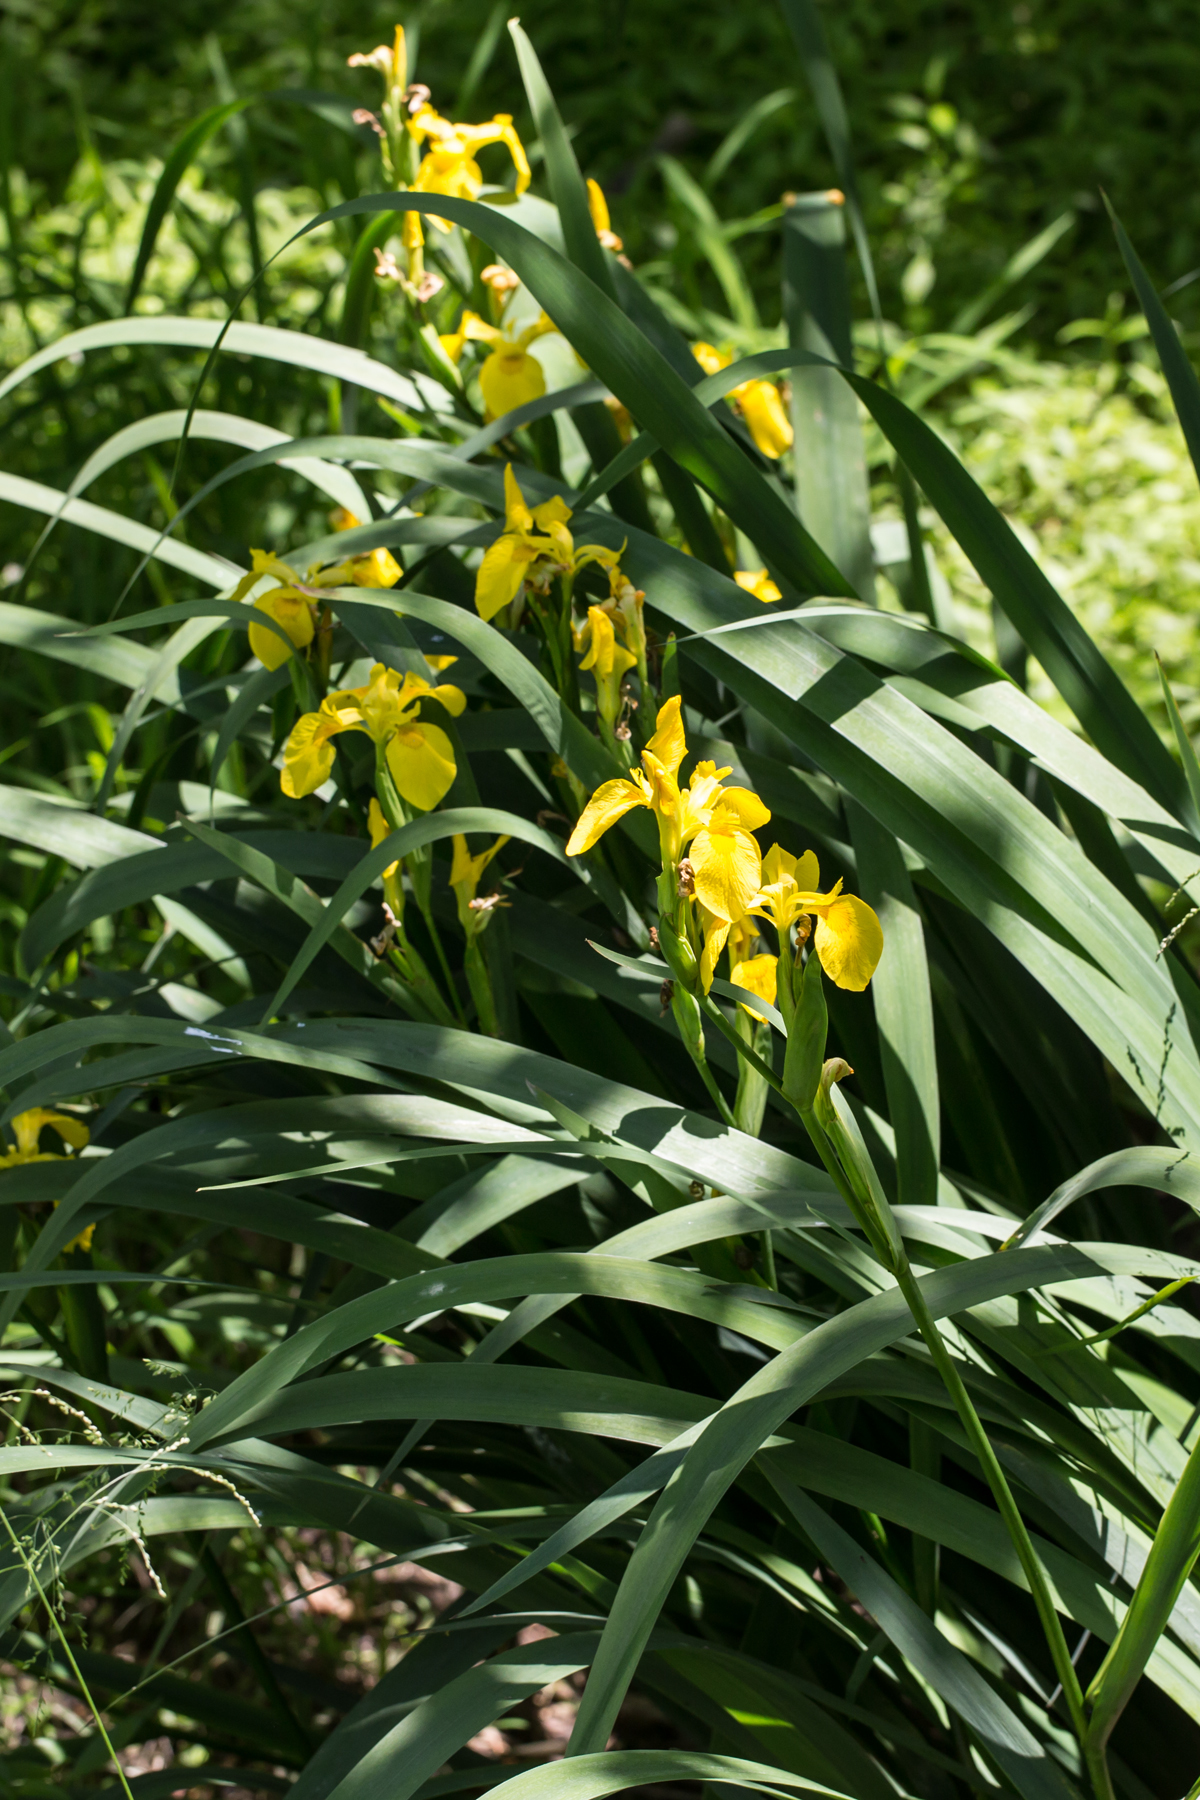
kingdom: Plantae
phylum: Tracheophyta
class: Liliopsida
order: Asparagales
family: Iridaceae
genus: Iris
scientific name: Iris pseudacorus
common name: Yellow flag
